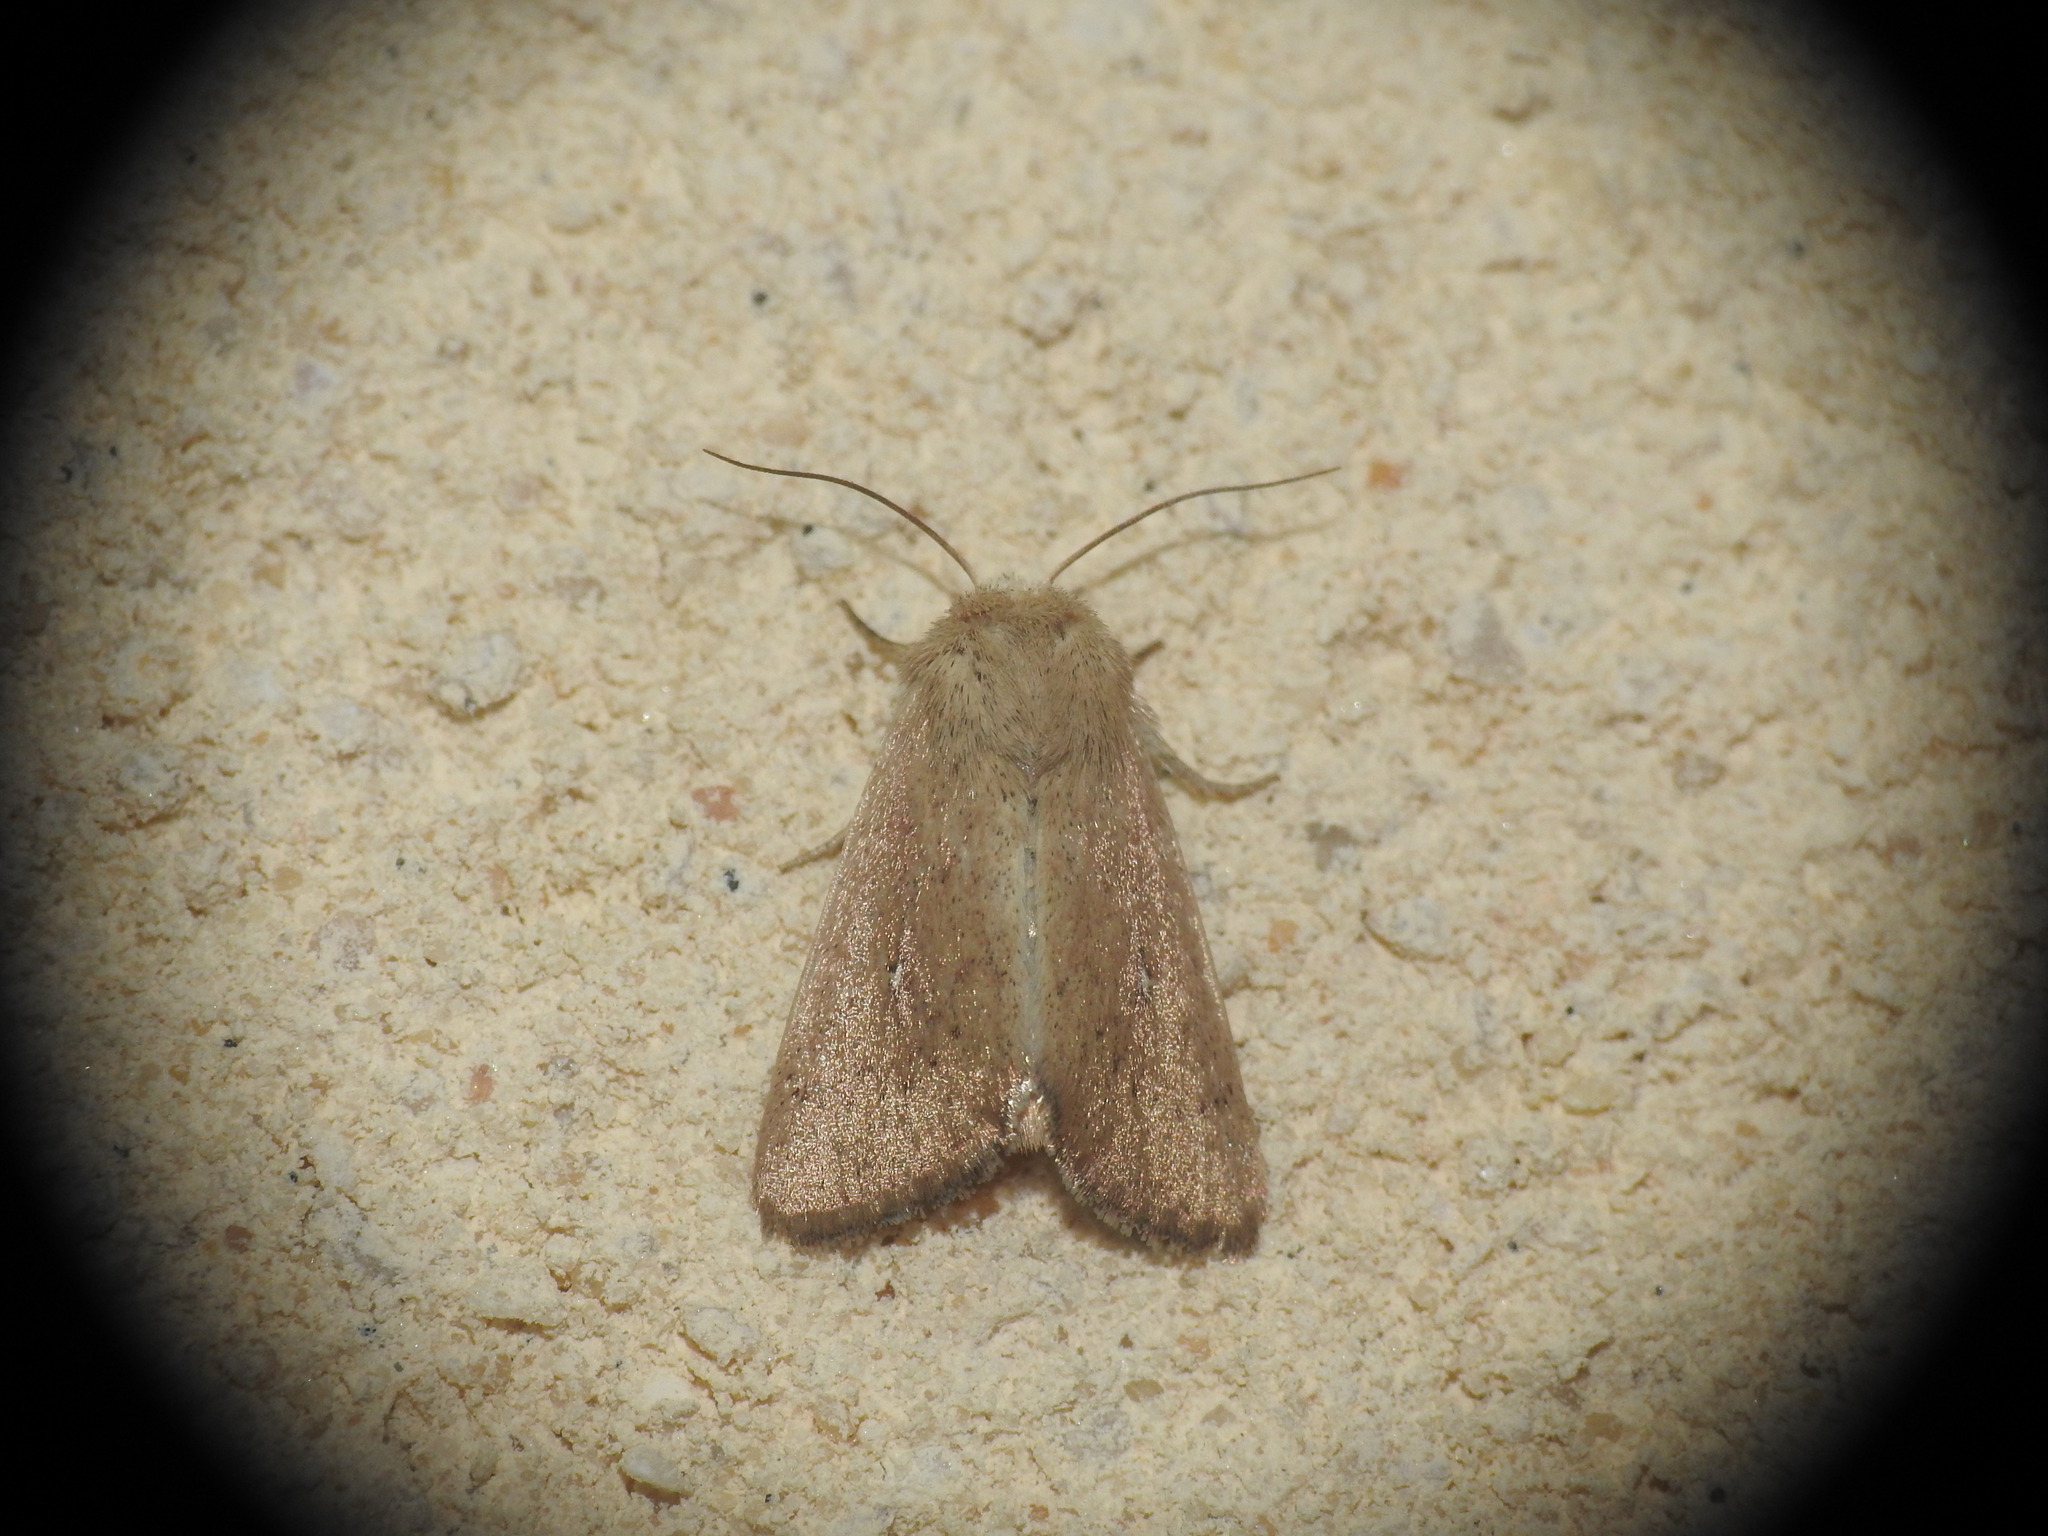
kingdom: Animalia
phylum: Arthropoda
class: Insecta
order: Lepidoptera
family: Noctuidae
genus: Mythimna
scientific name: Mythimna sicula
